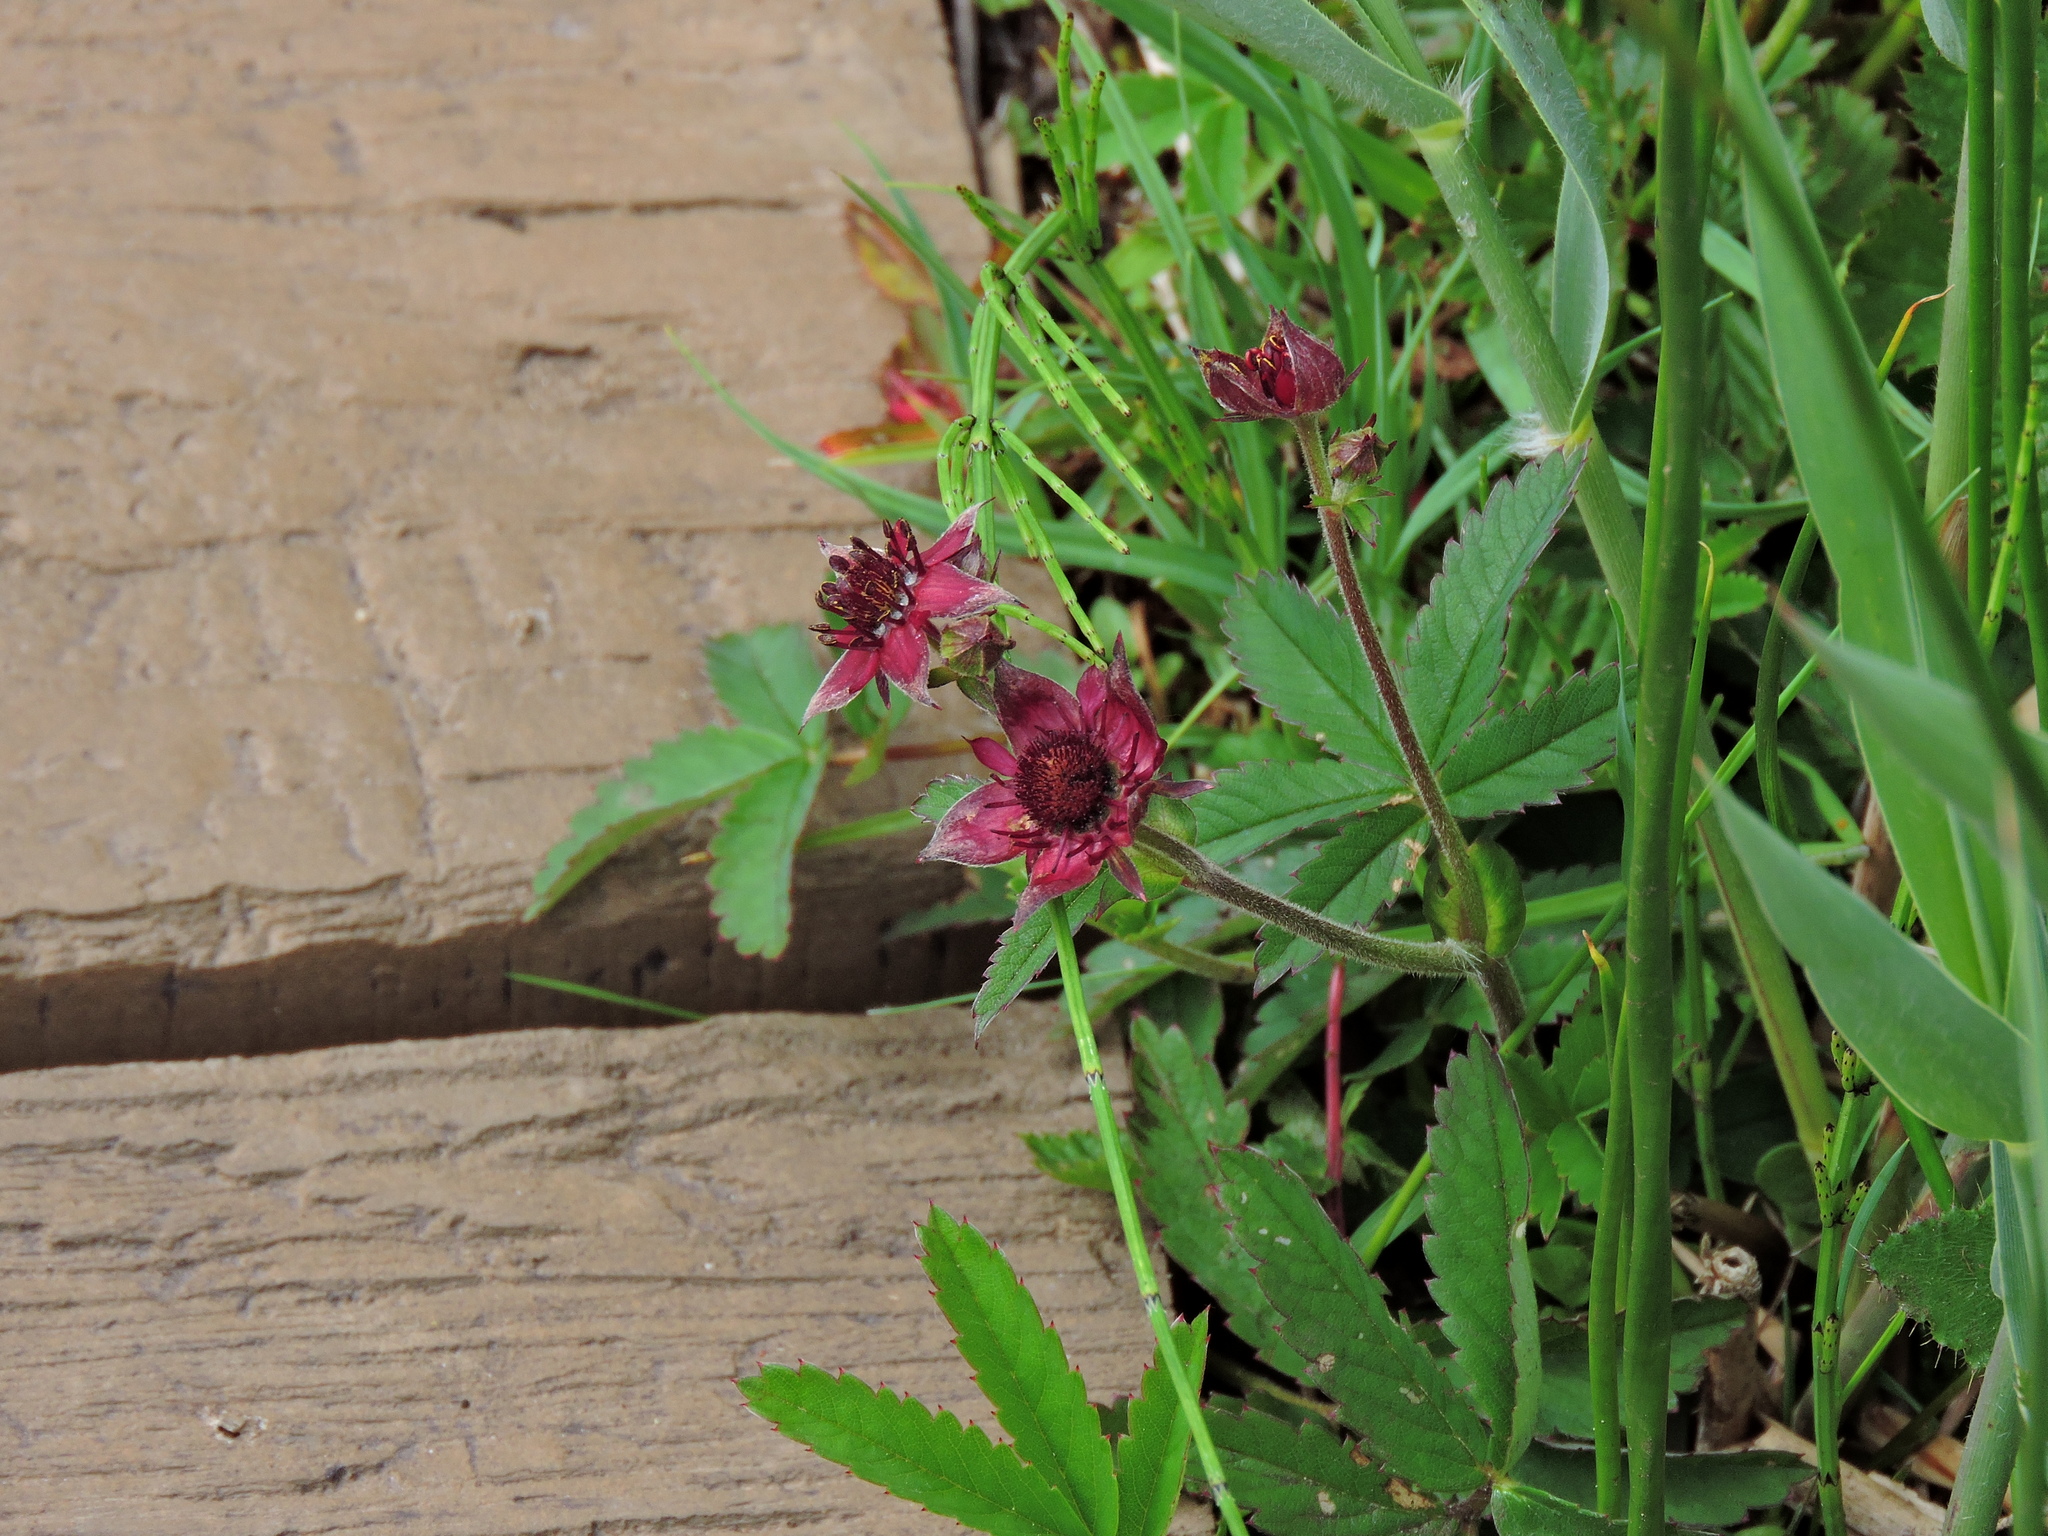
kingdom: Plantae
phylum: Tracheophyta
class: Magnoliopsida
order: Rosales
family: Rosaceae
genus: Comarum
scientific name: Comarum palustre
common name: Marsh cinquefoil
